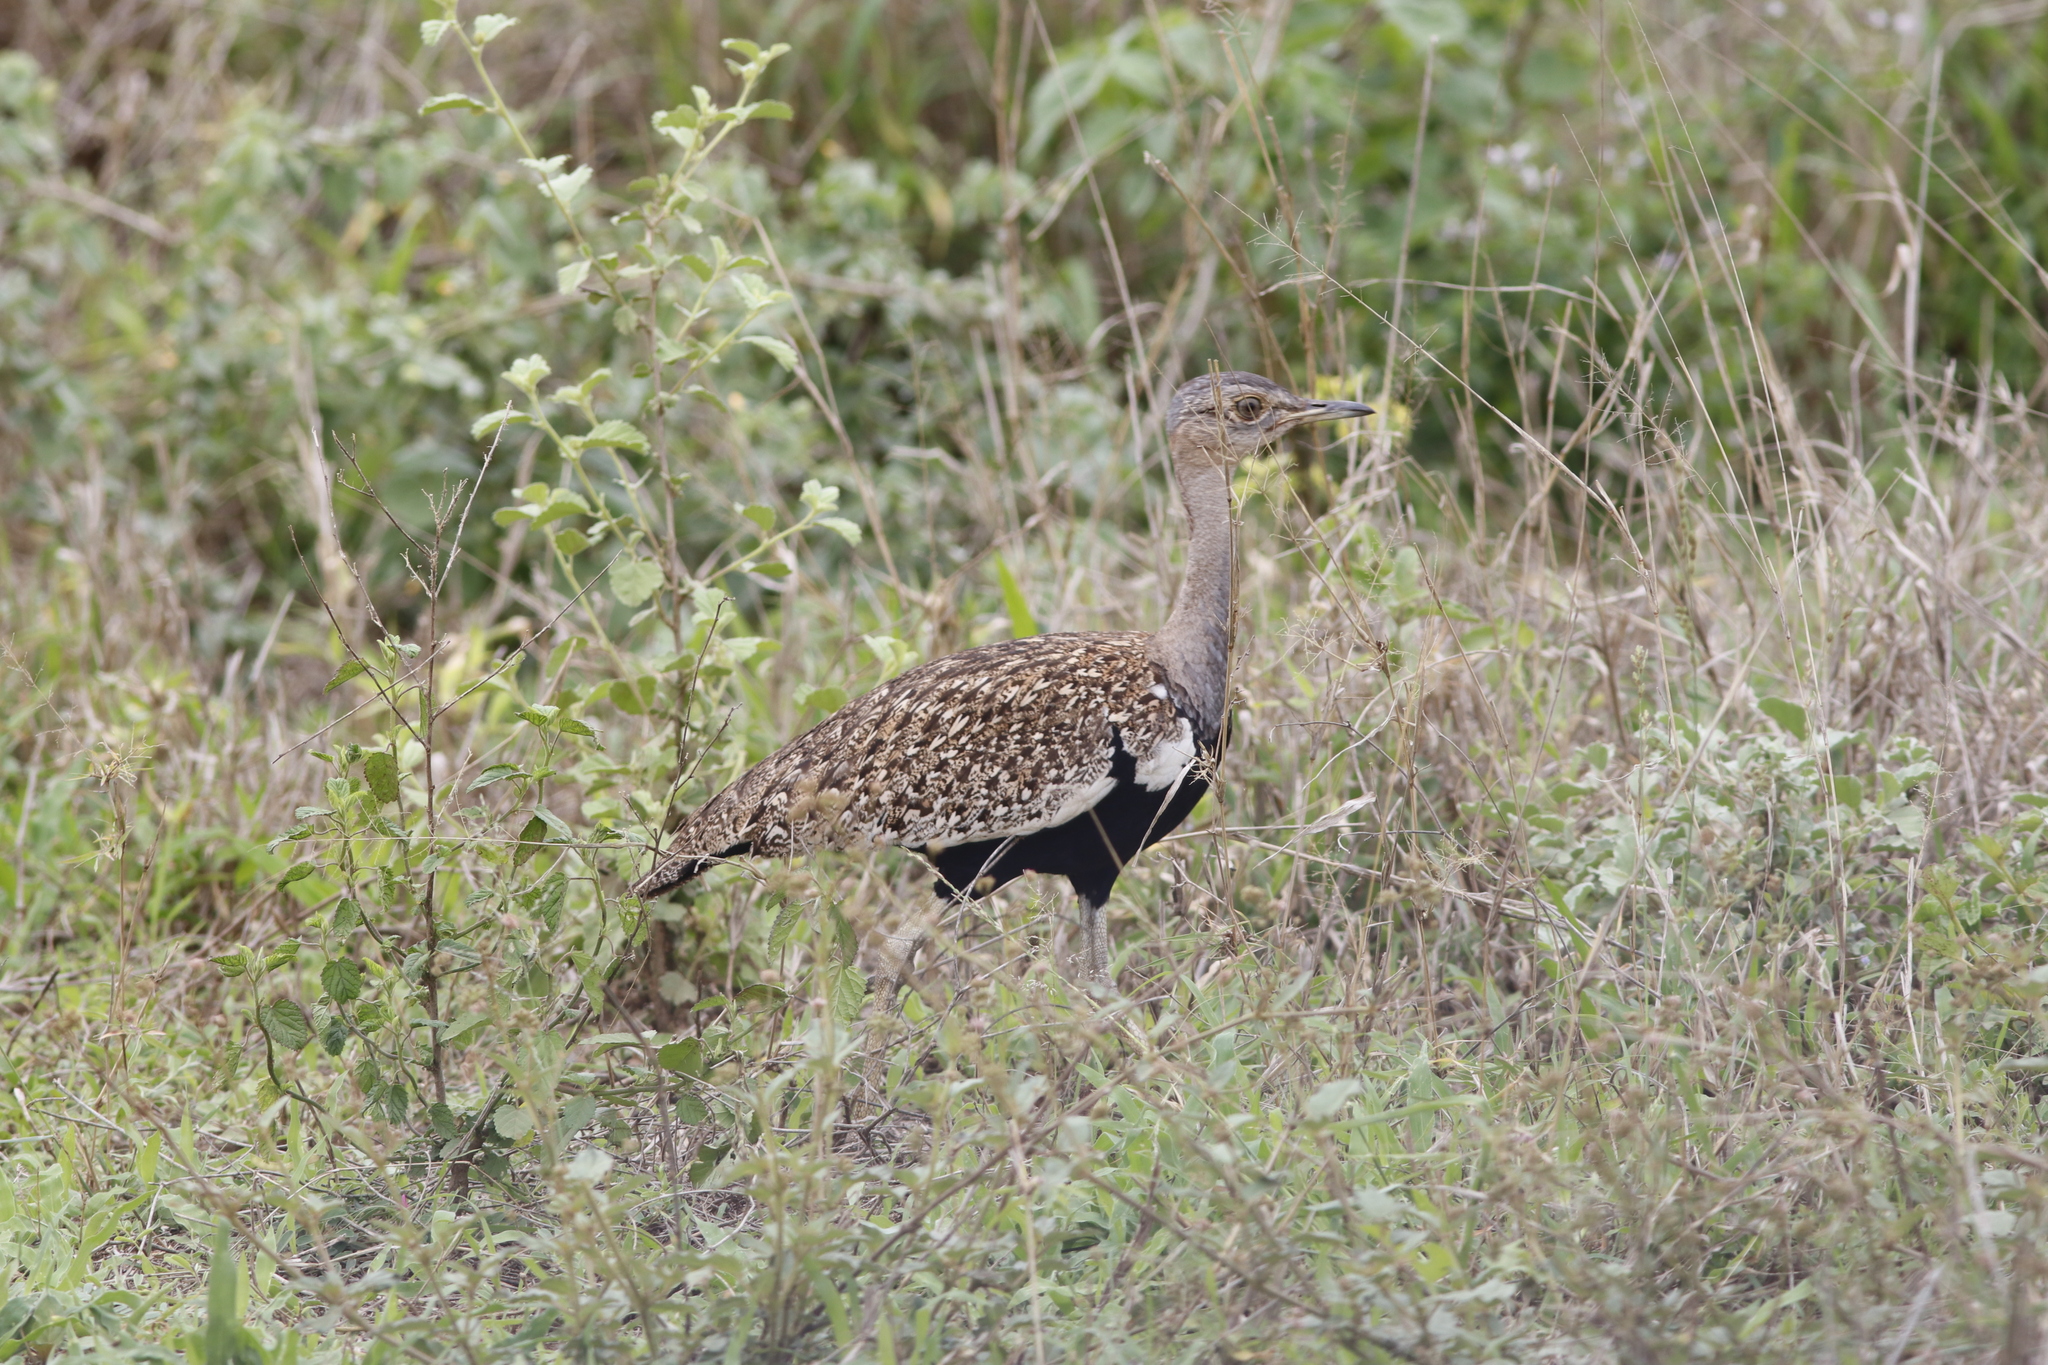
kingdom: Animalia
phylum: Chordata
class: Aves
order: Otidiformes
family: Otididae
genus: Lophotis
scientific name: Lophotis ruficrista
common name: Red-crested korhaan
